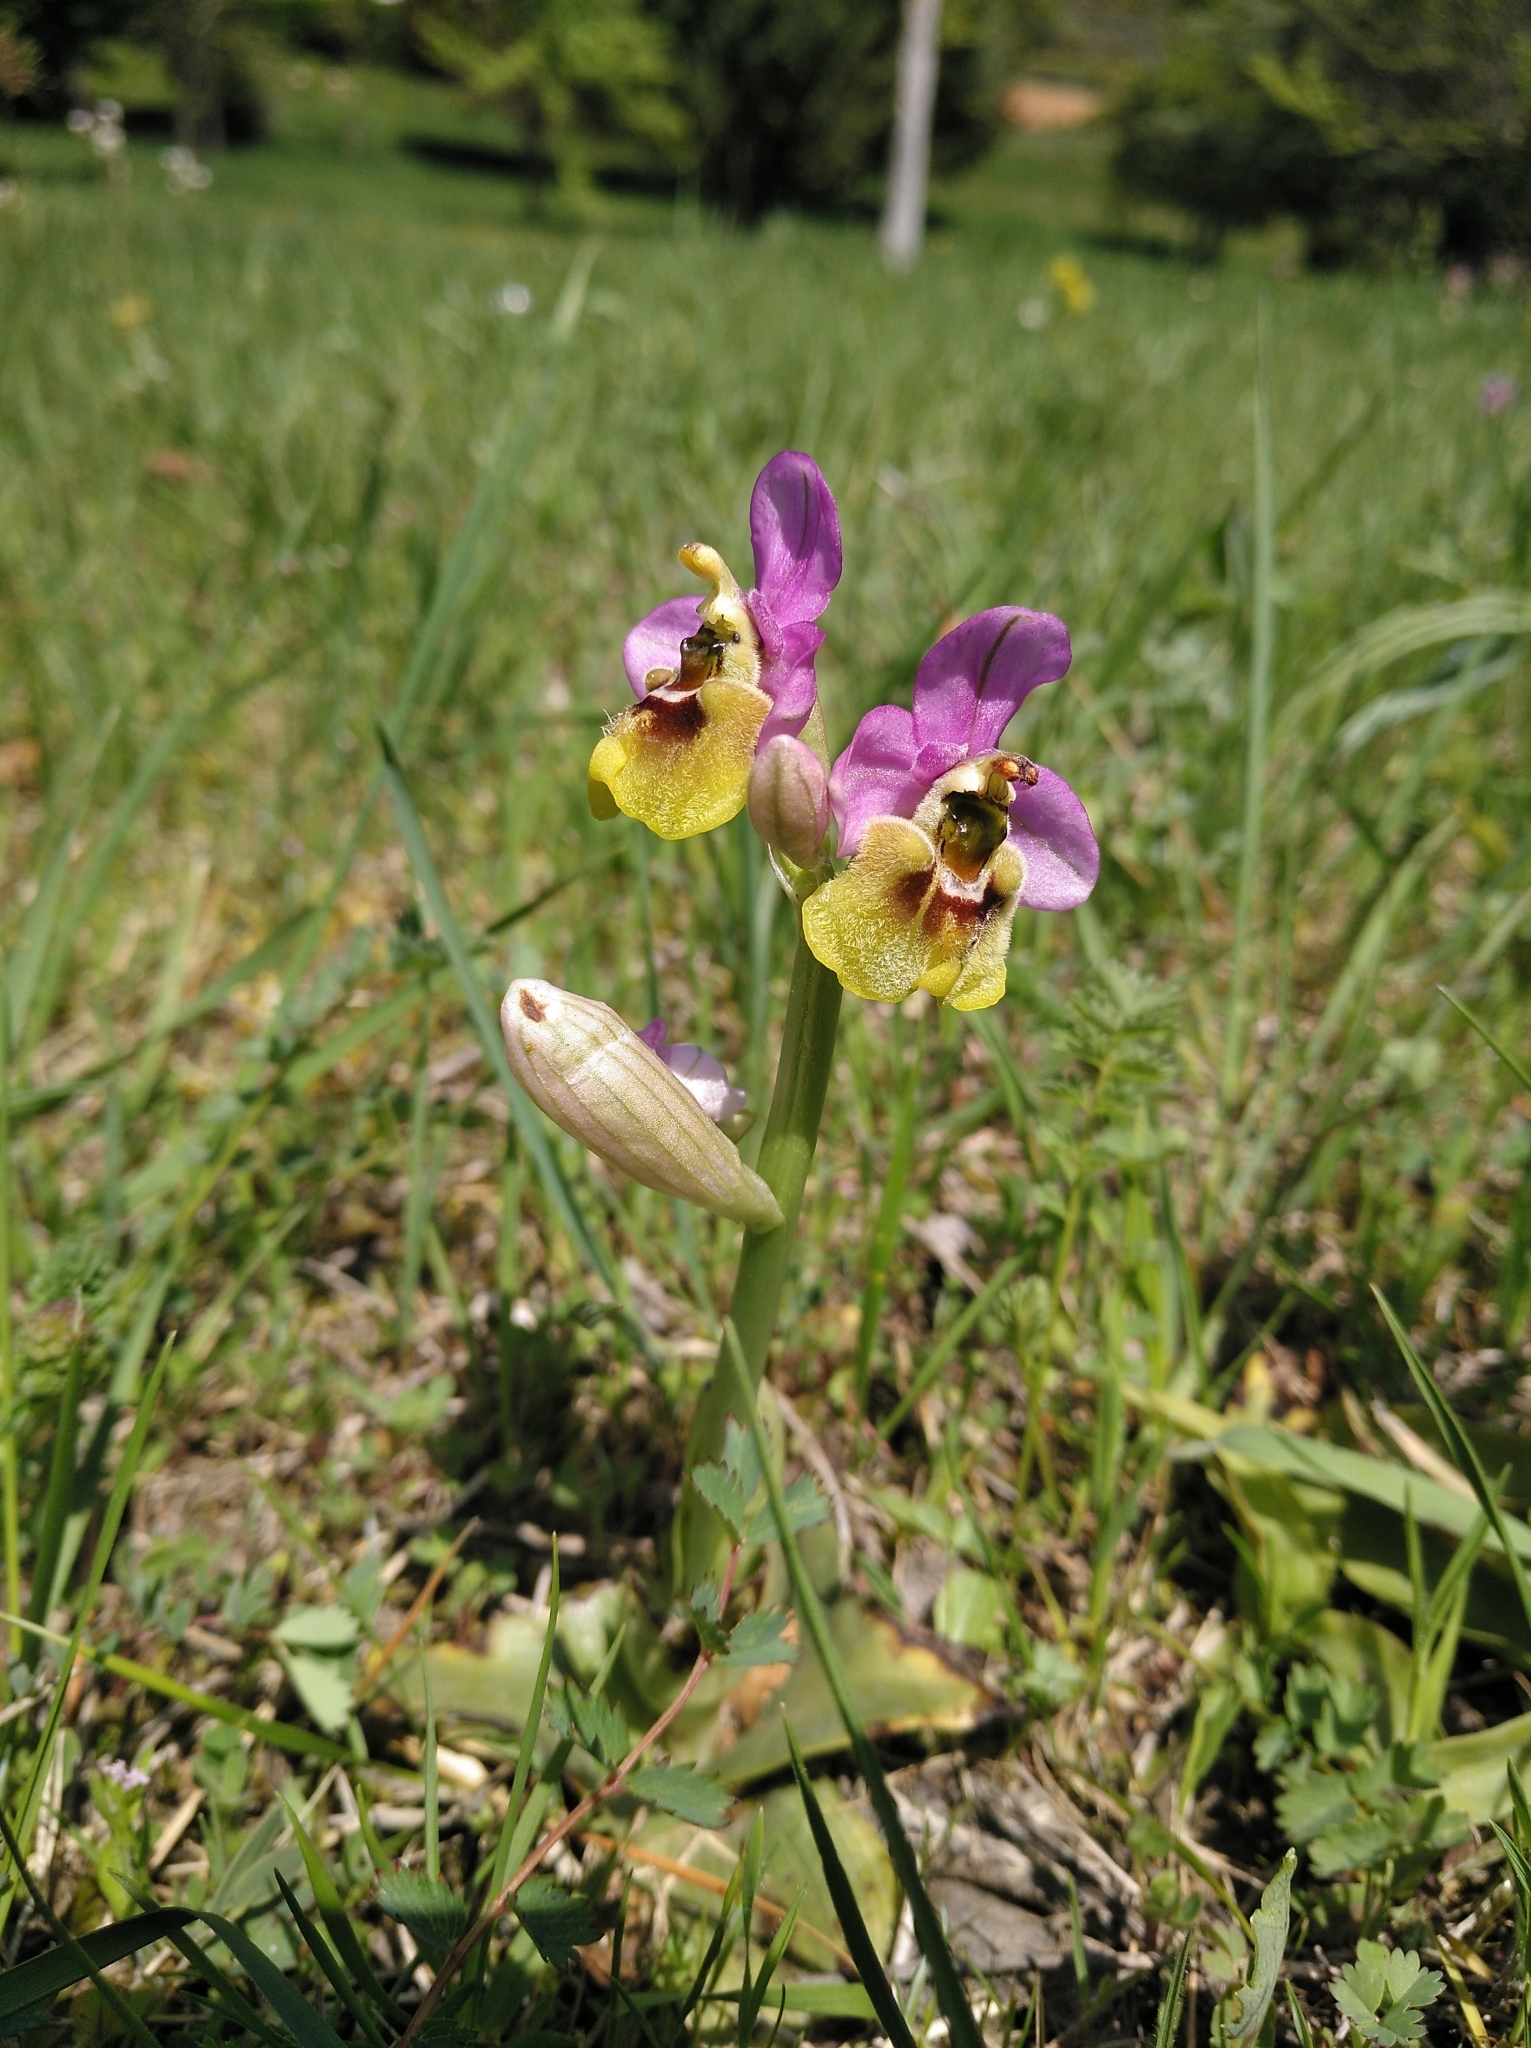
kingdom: Plantae
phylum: Tracheophyta
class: Liliopsida
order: Asparagales
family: Orchidaceae
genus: Ophrys
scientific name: Ophrys tenthredinifera
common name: Sawfly orchid
